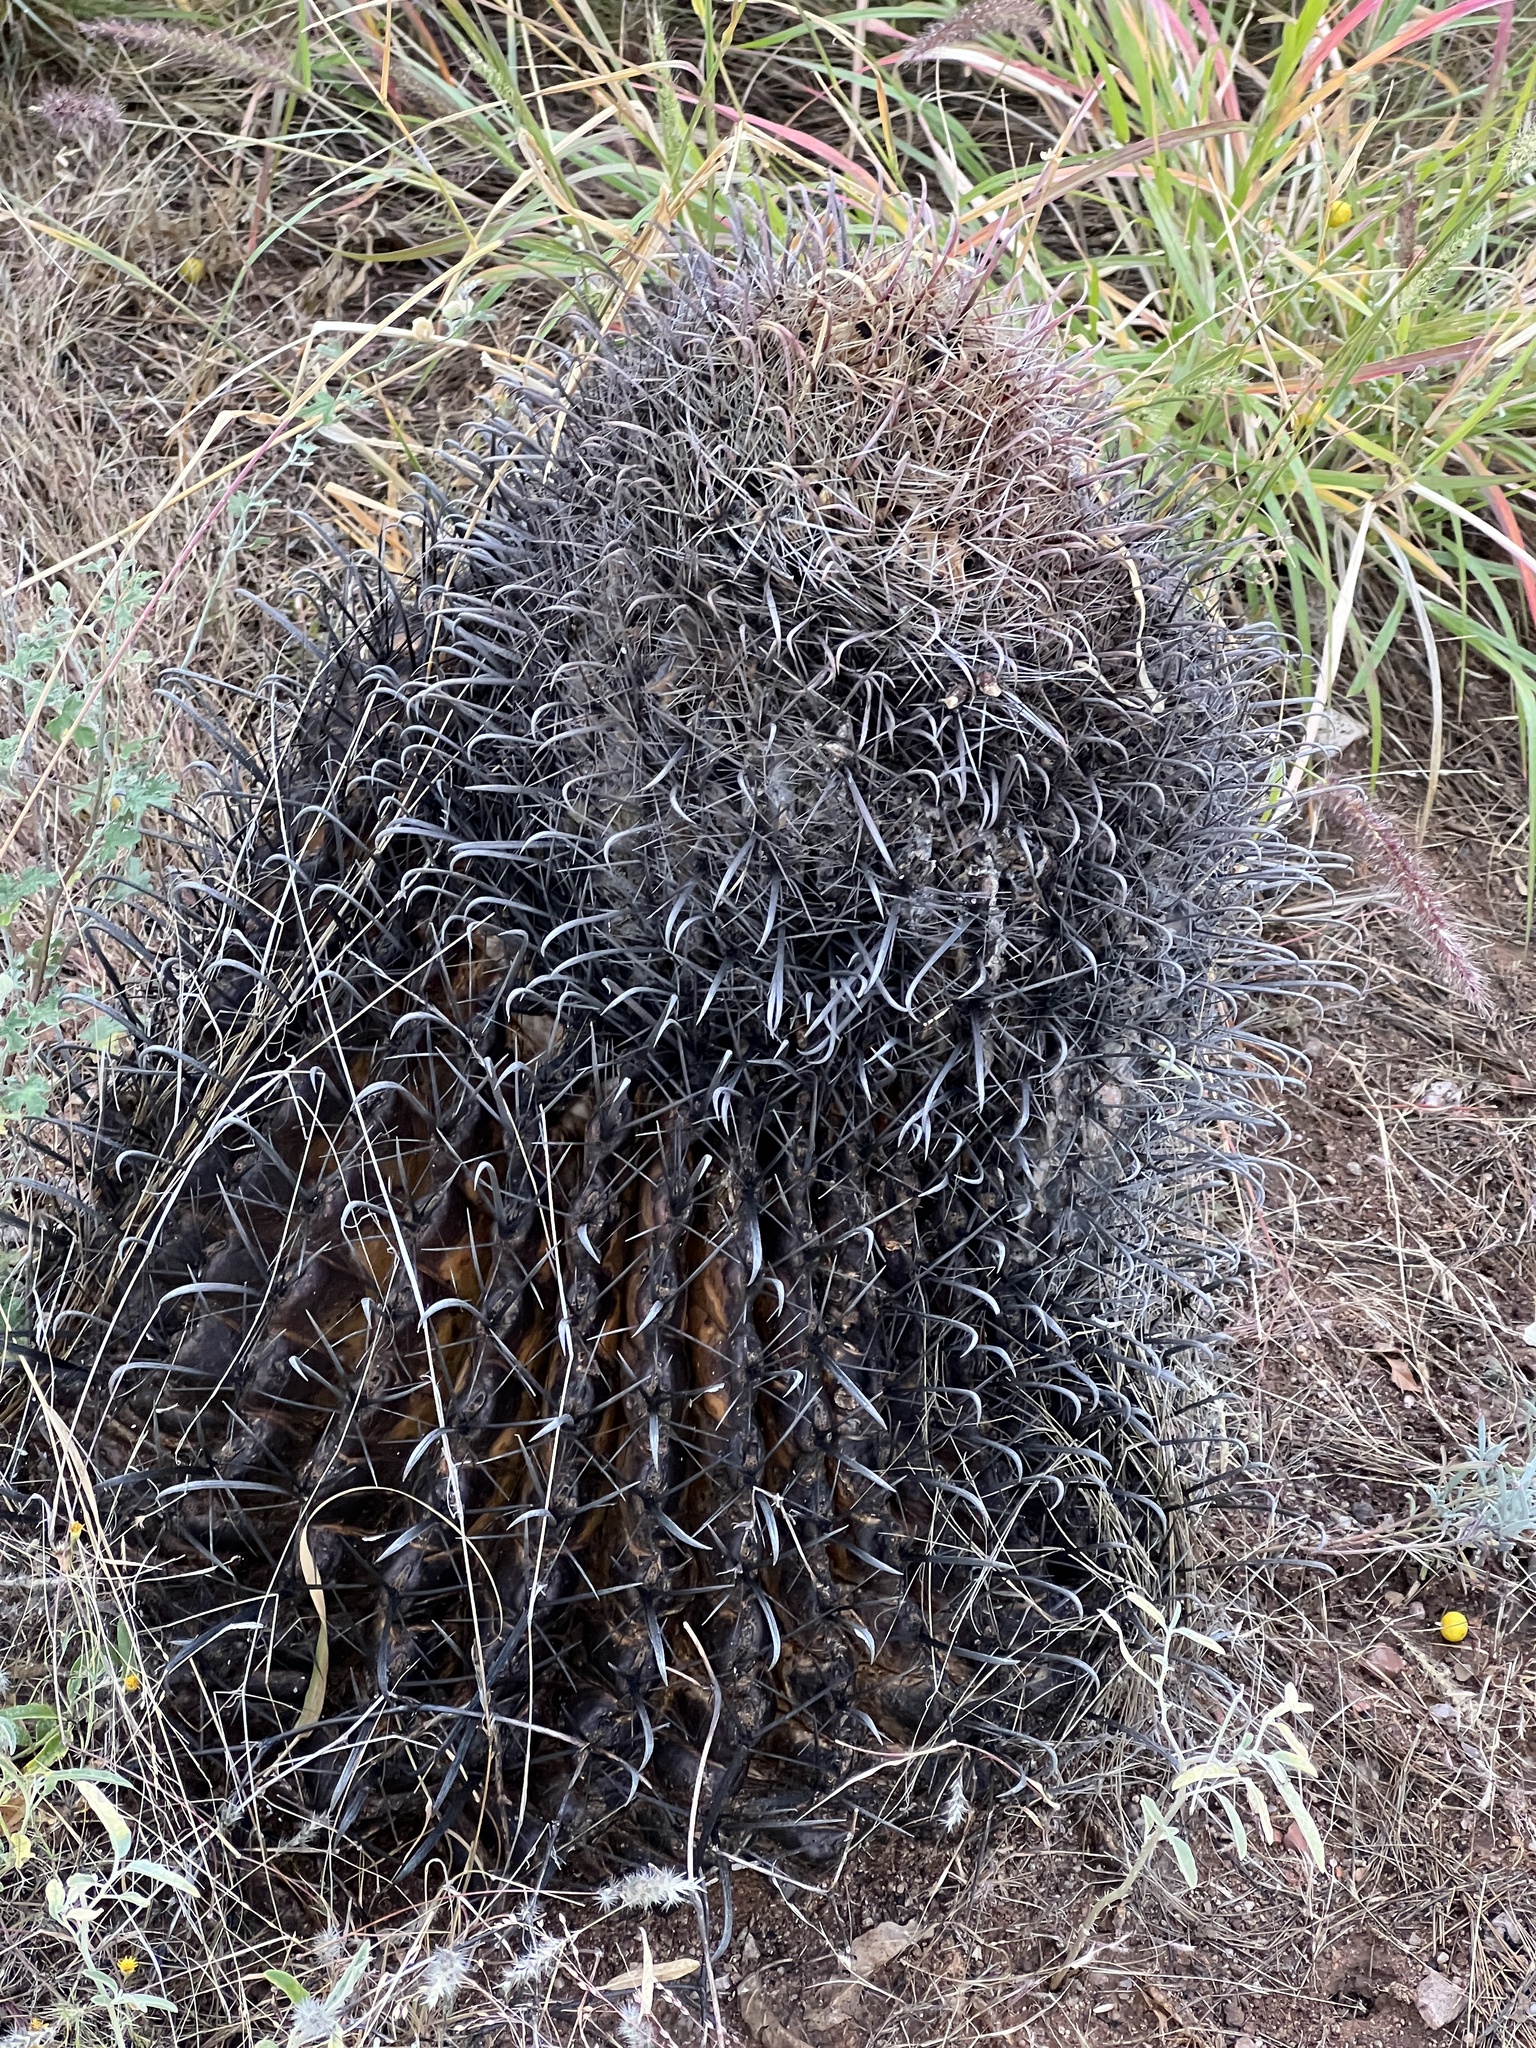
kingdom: Plantae
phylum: Tracheophyta
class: Magnoliopsida
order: Caryophyllales
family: Cactaceae
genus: Ferocactus
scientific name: Ferocactus wislizeni
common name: Candy barrel cactus
